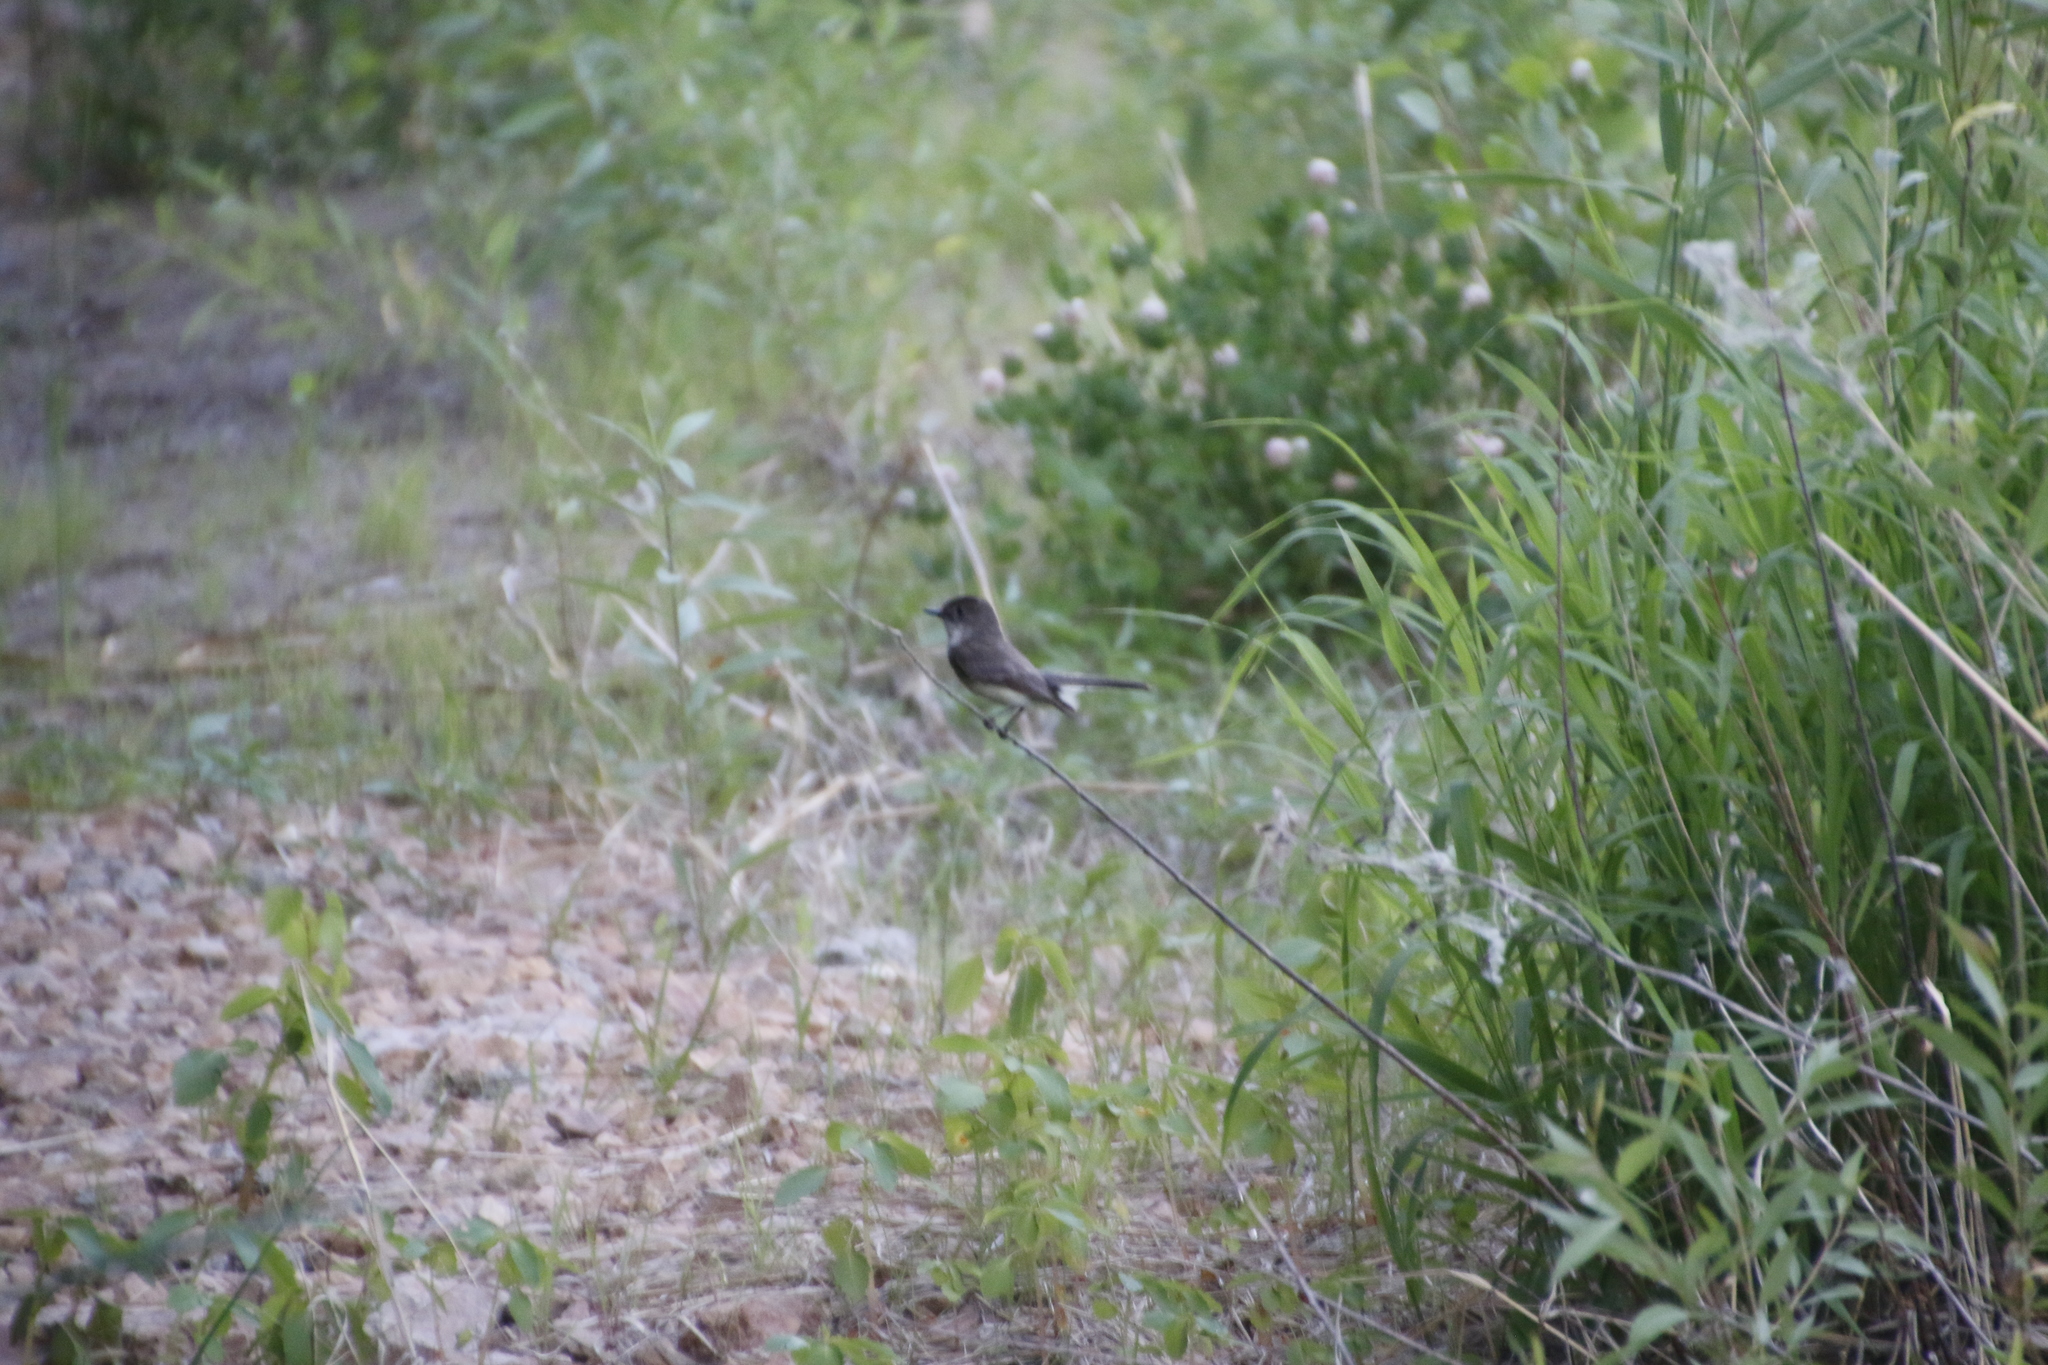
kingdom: Animalia
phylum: Chordata
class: Aves
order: Passeriformes
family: Tyrannidae
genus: Sayornis
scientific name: Sayornis phoebe
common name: Eastern phoebe
